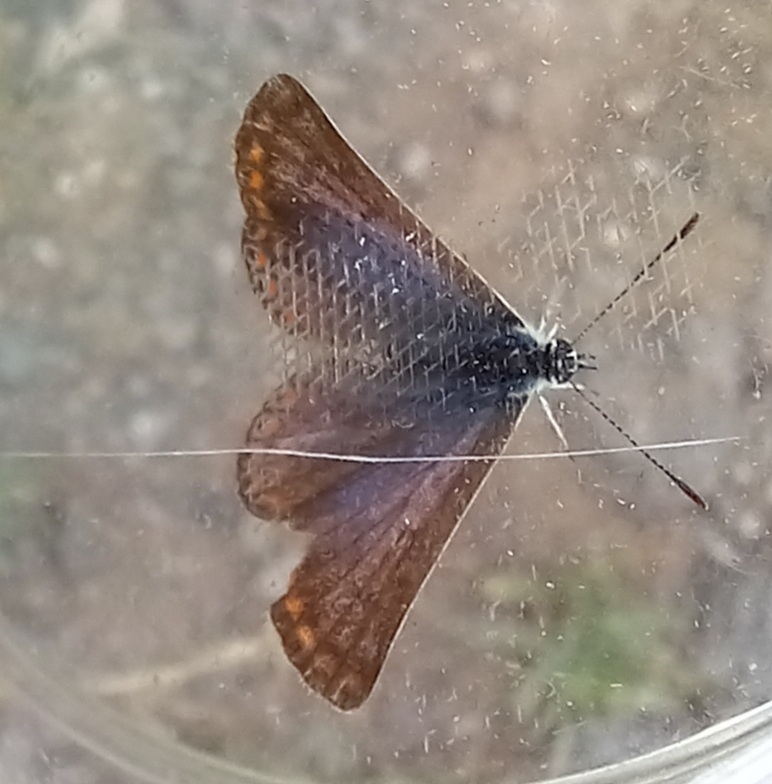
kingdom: Animalia
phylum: Arthropoda
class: Insecta
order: Lepidoptera
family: Lycaenidae
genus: Polyommatus
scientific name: Polyommatus icarus
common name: Common blue
